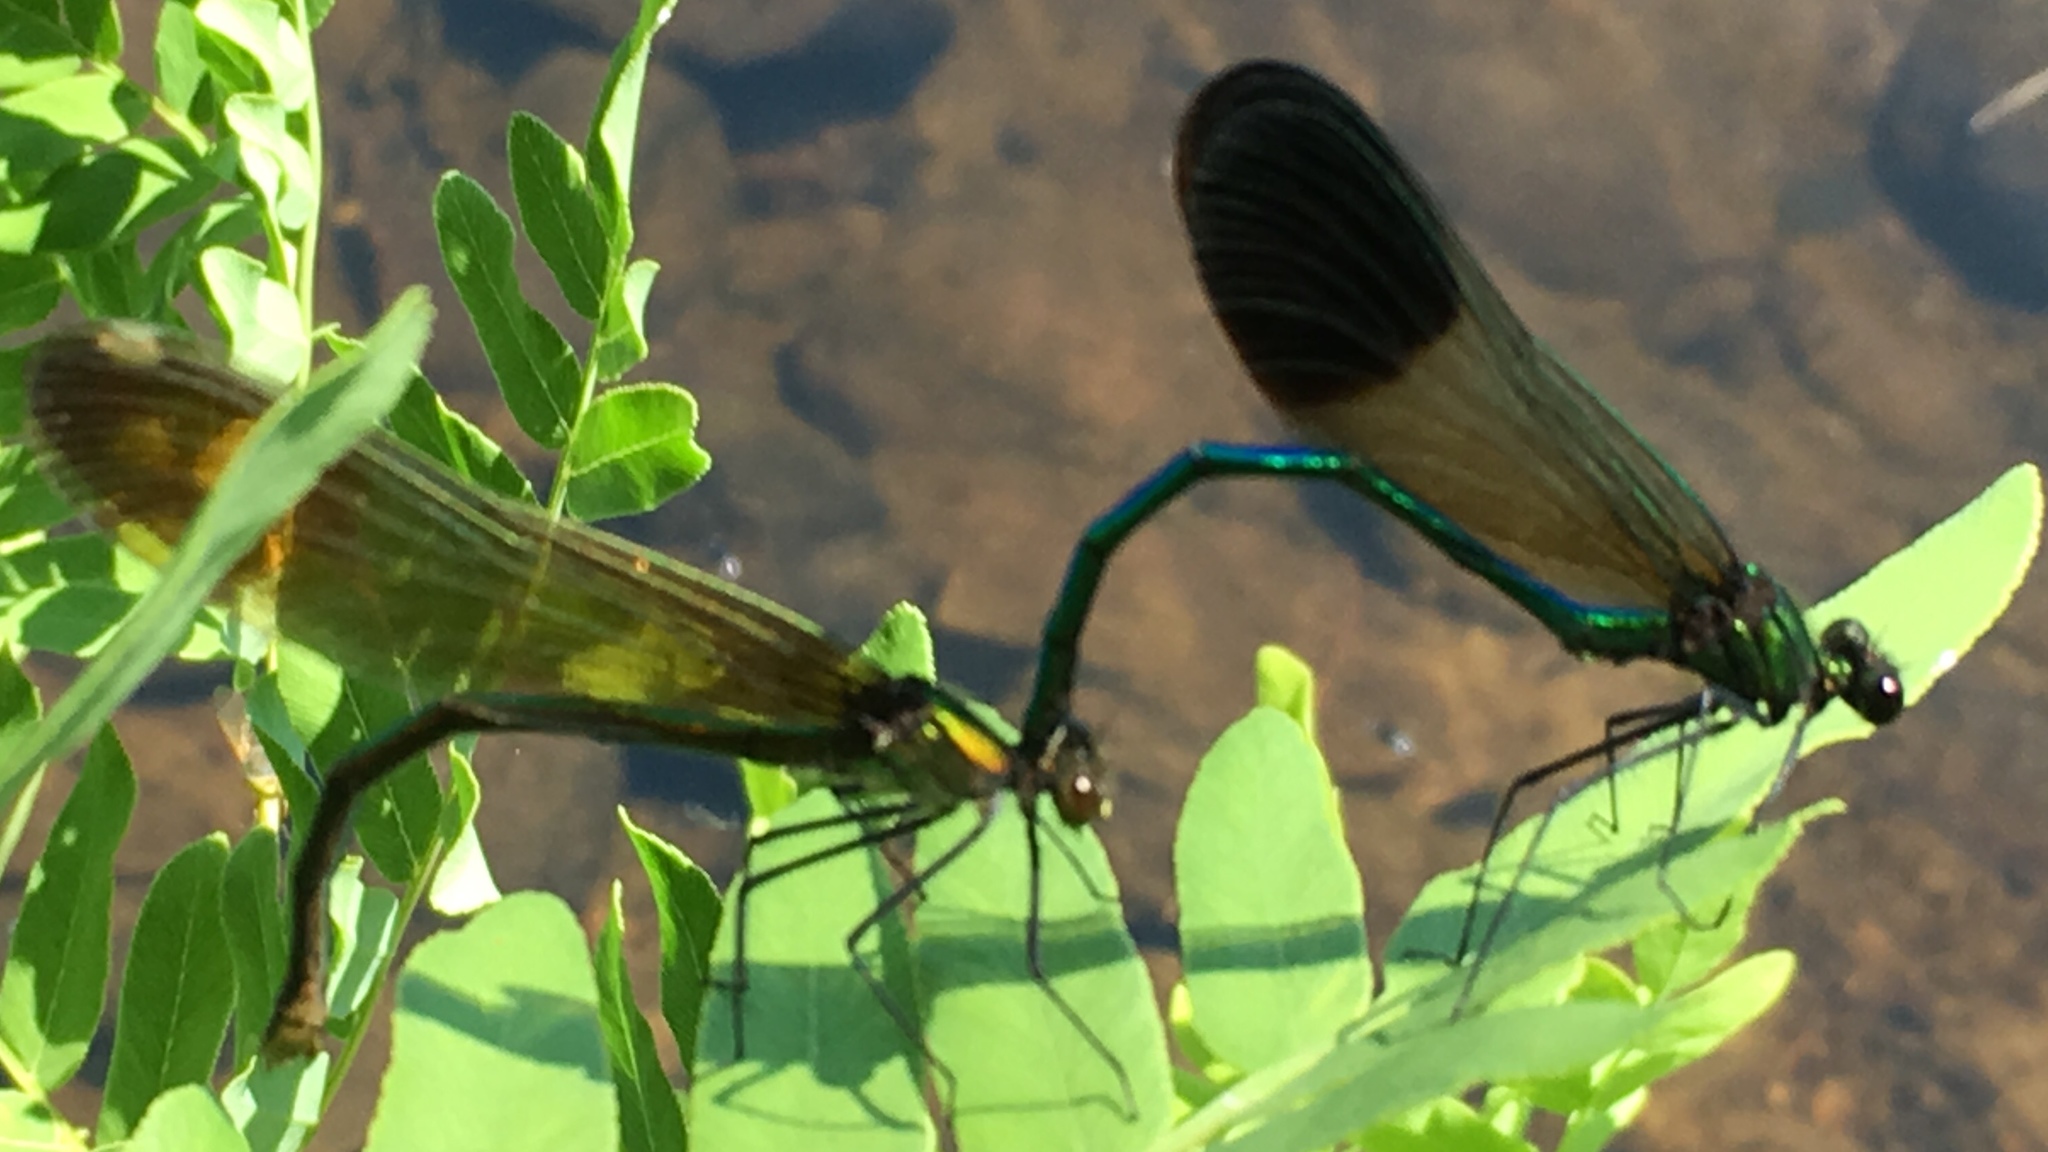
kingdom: Animalia
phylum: Arthropoda
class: Insecta
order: Odonata
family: Calopterygidae
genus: Calopteryx
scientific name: Calopteryx aequabilis
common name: River jewelwing
